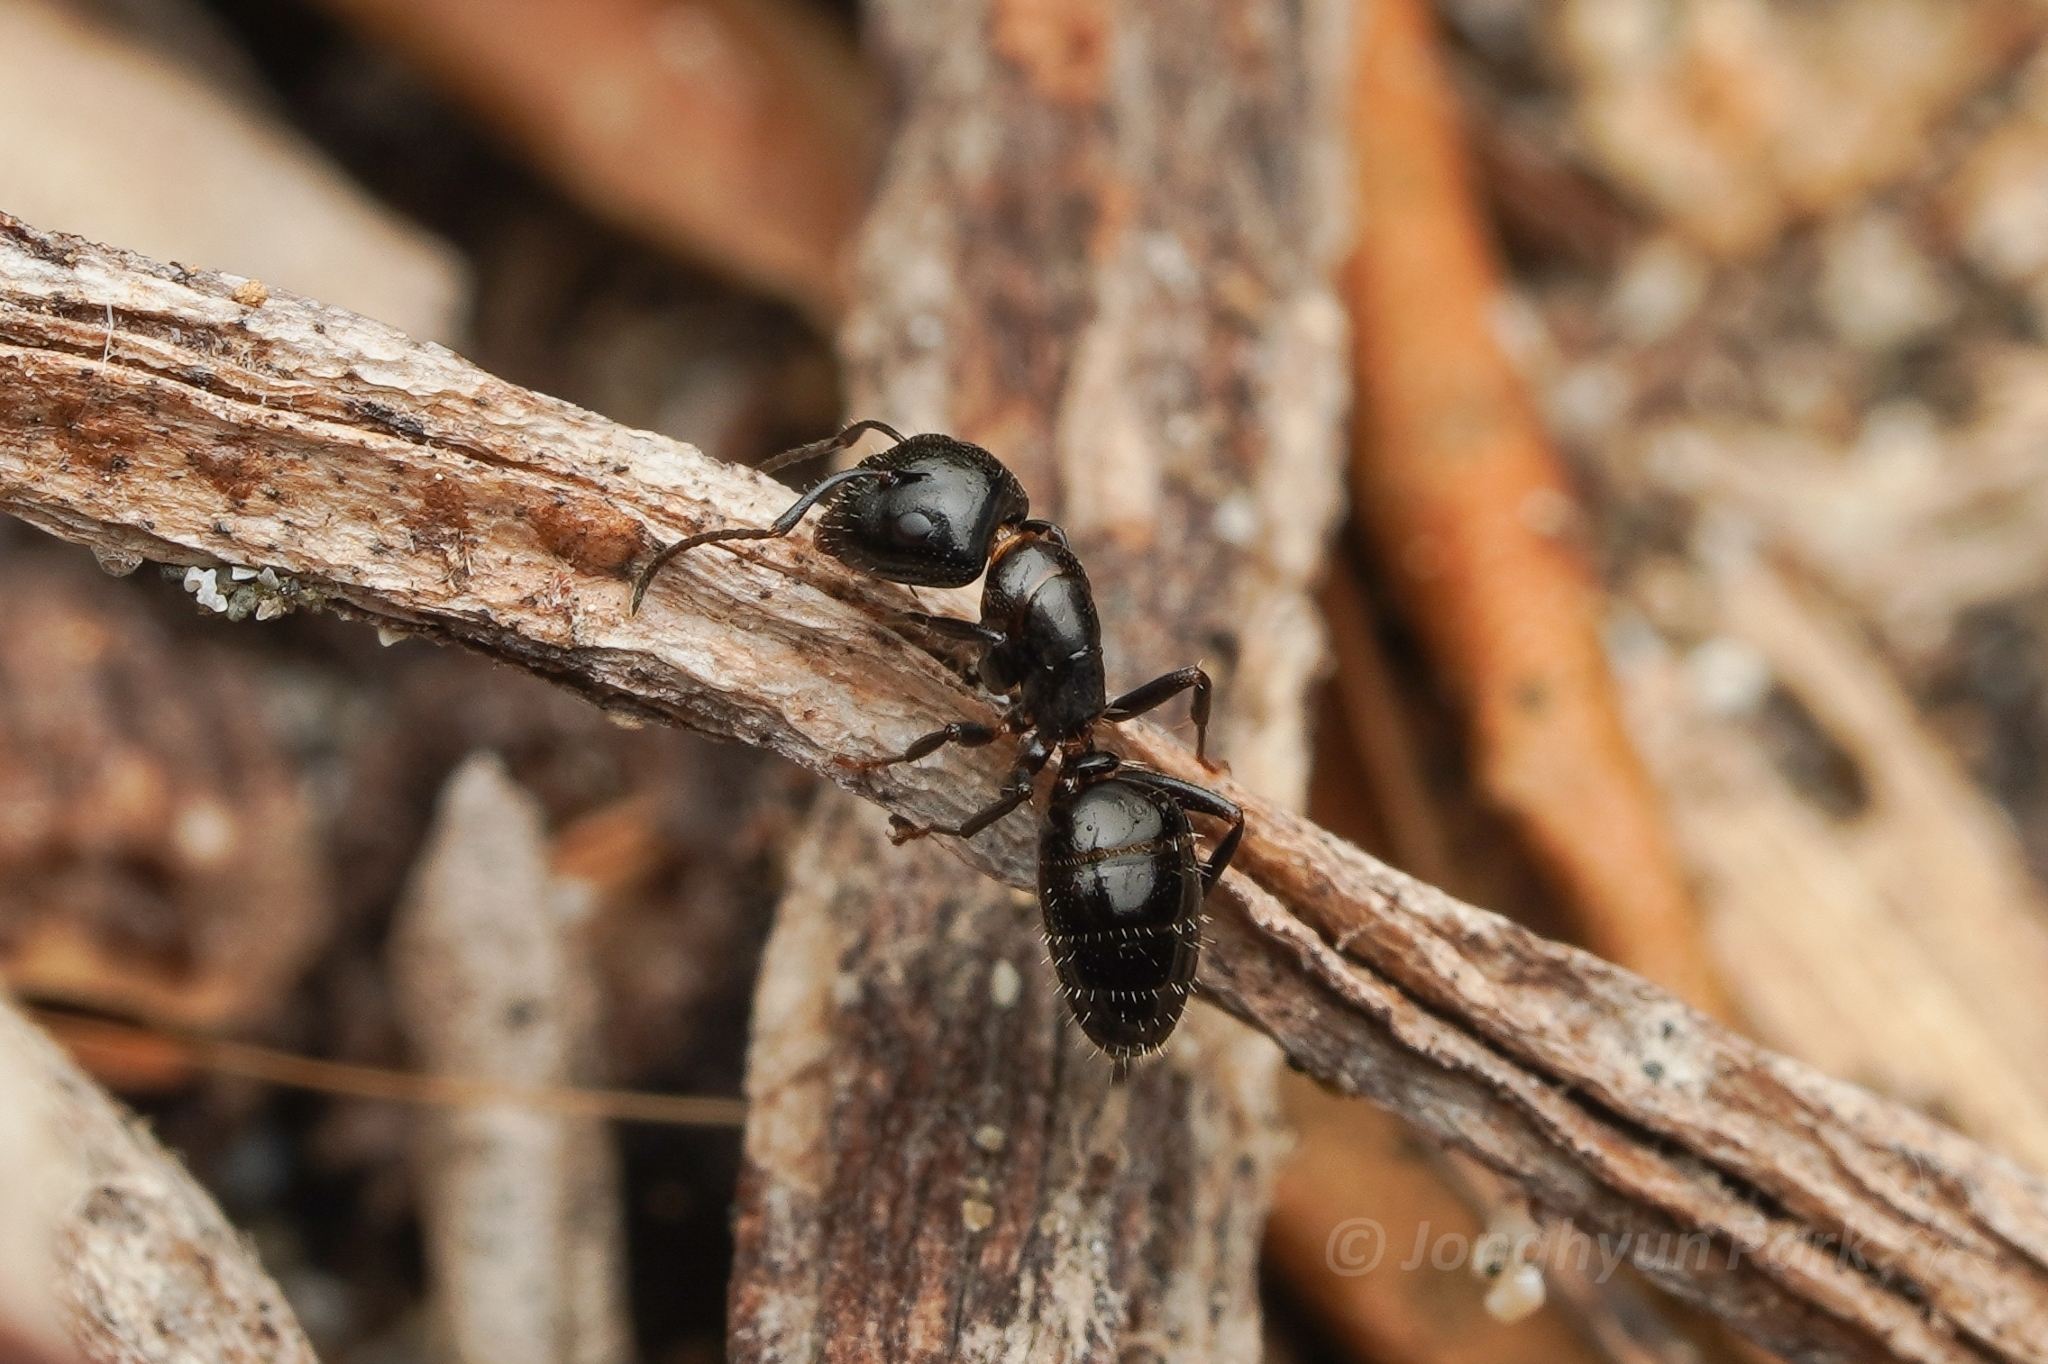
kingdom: Animalia
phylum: Arthropoda
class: Insecta
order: Hymenoptera
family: Formicidae
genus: Camponotus
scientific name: Camponotus vitiosus
